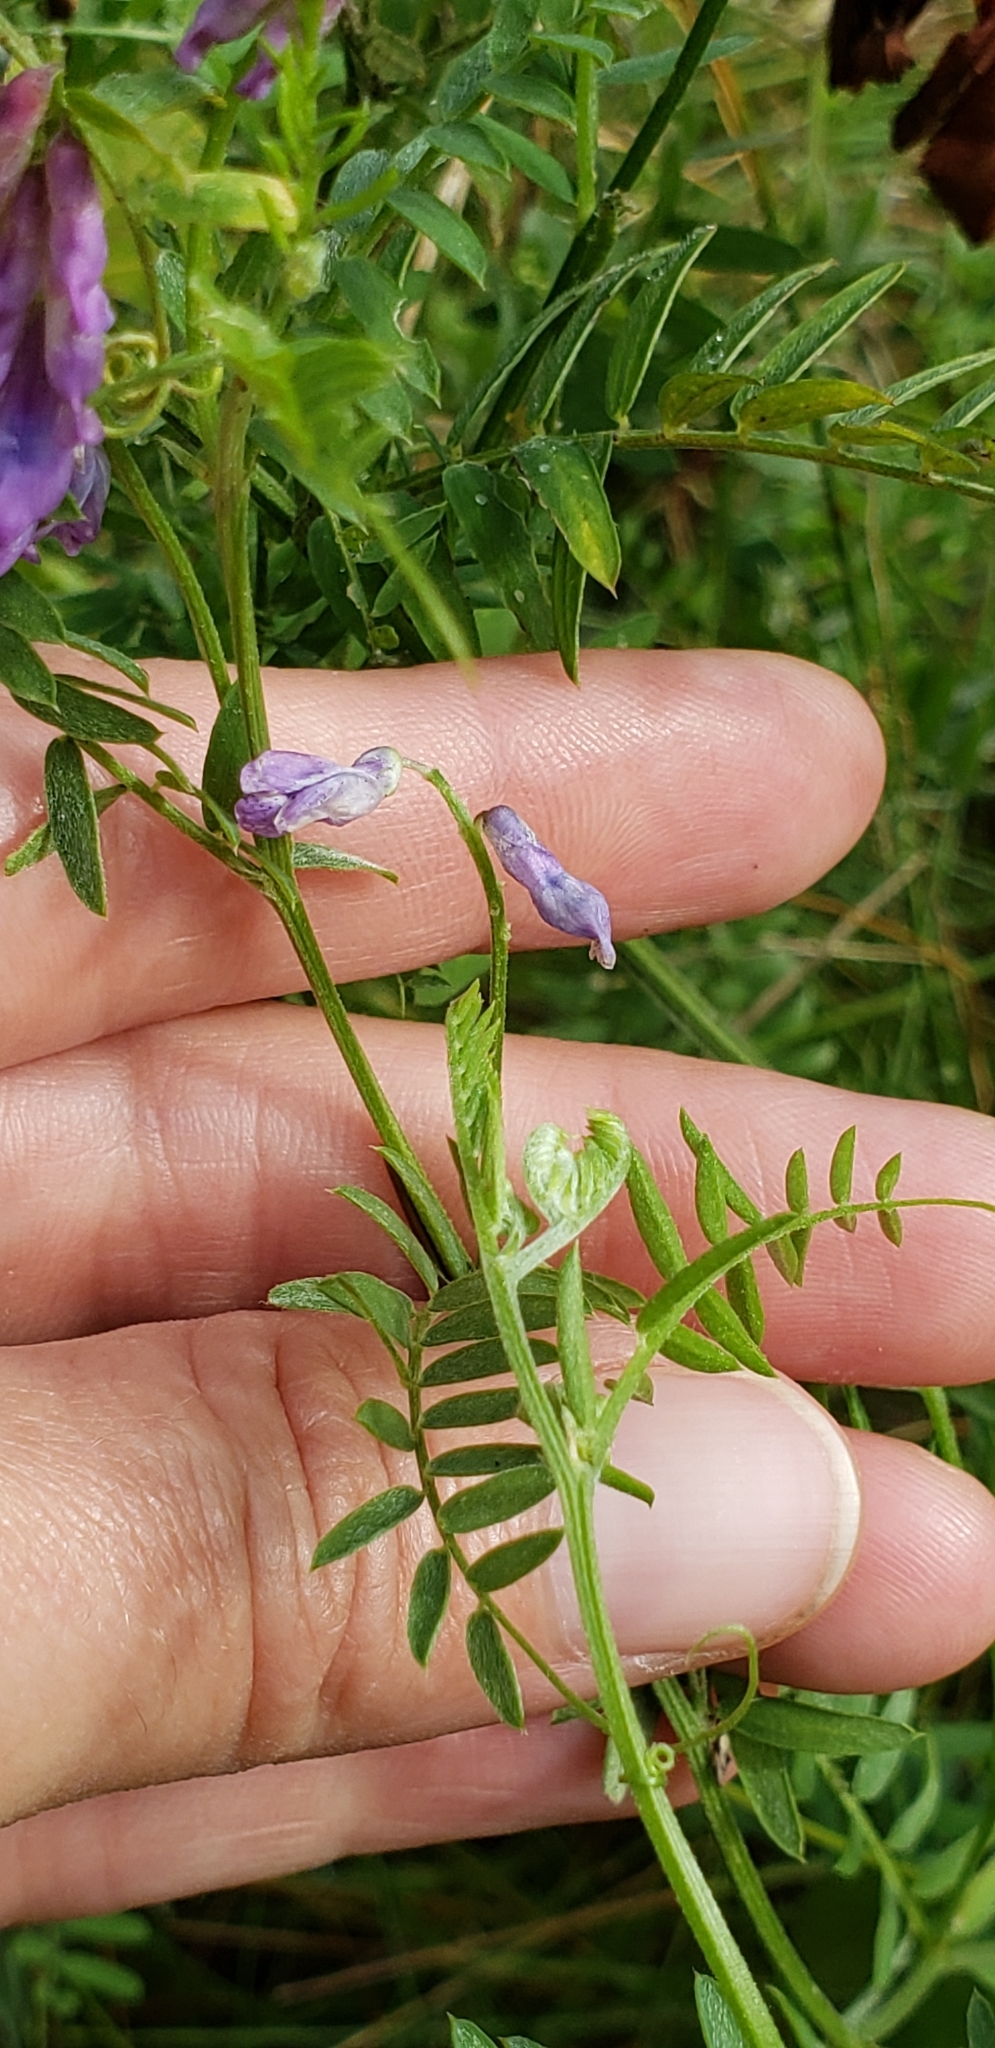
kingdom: Plantae
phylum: Tracheophyta
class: Magnoliopsida
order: Fabales
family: Fabaceae
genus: Vicia
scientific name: Vicia cracca
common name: Bird vetch
